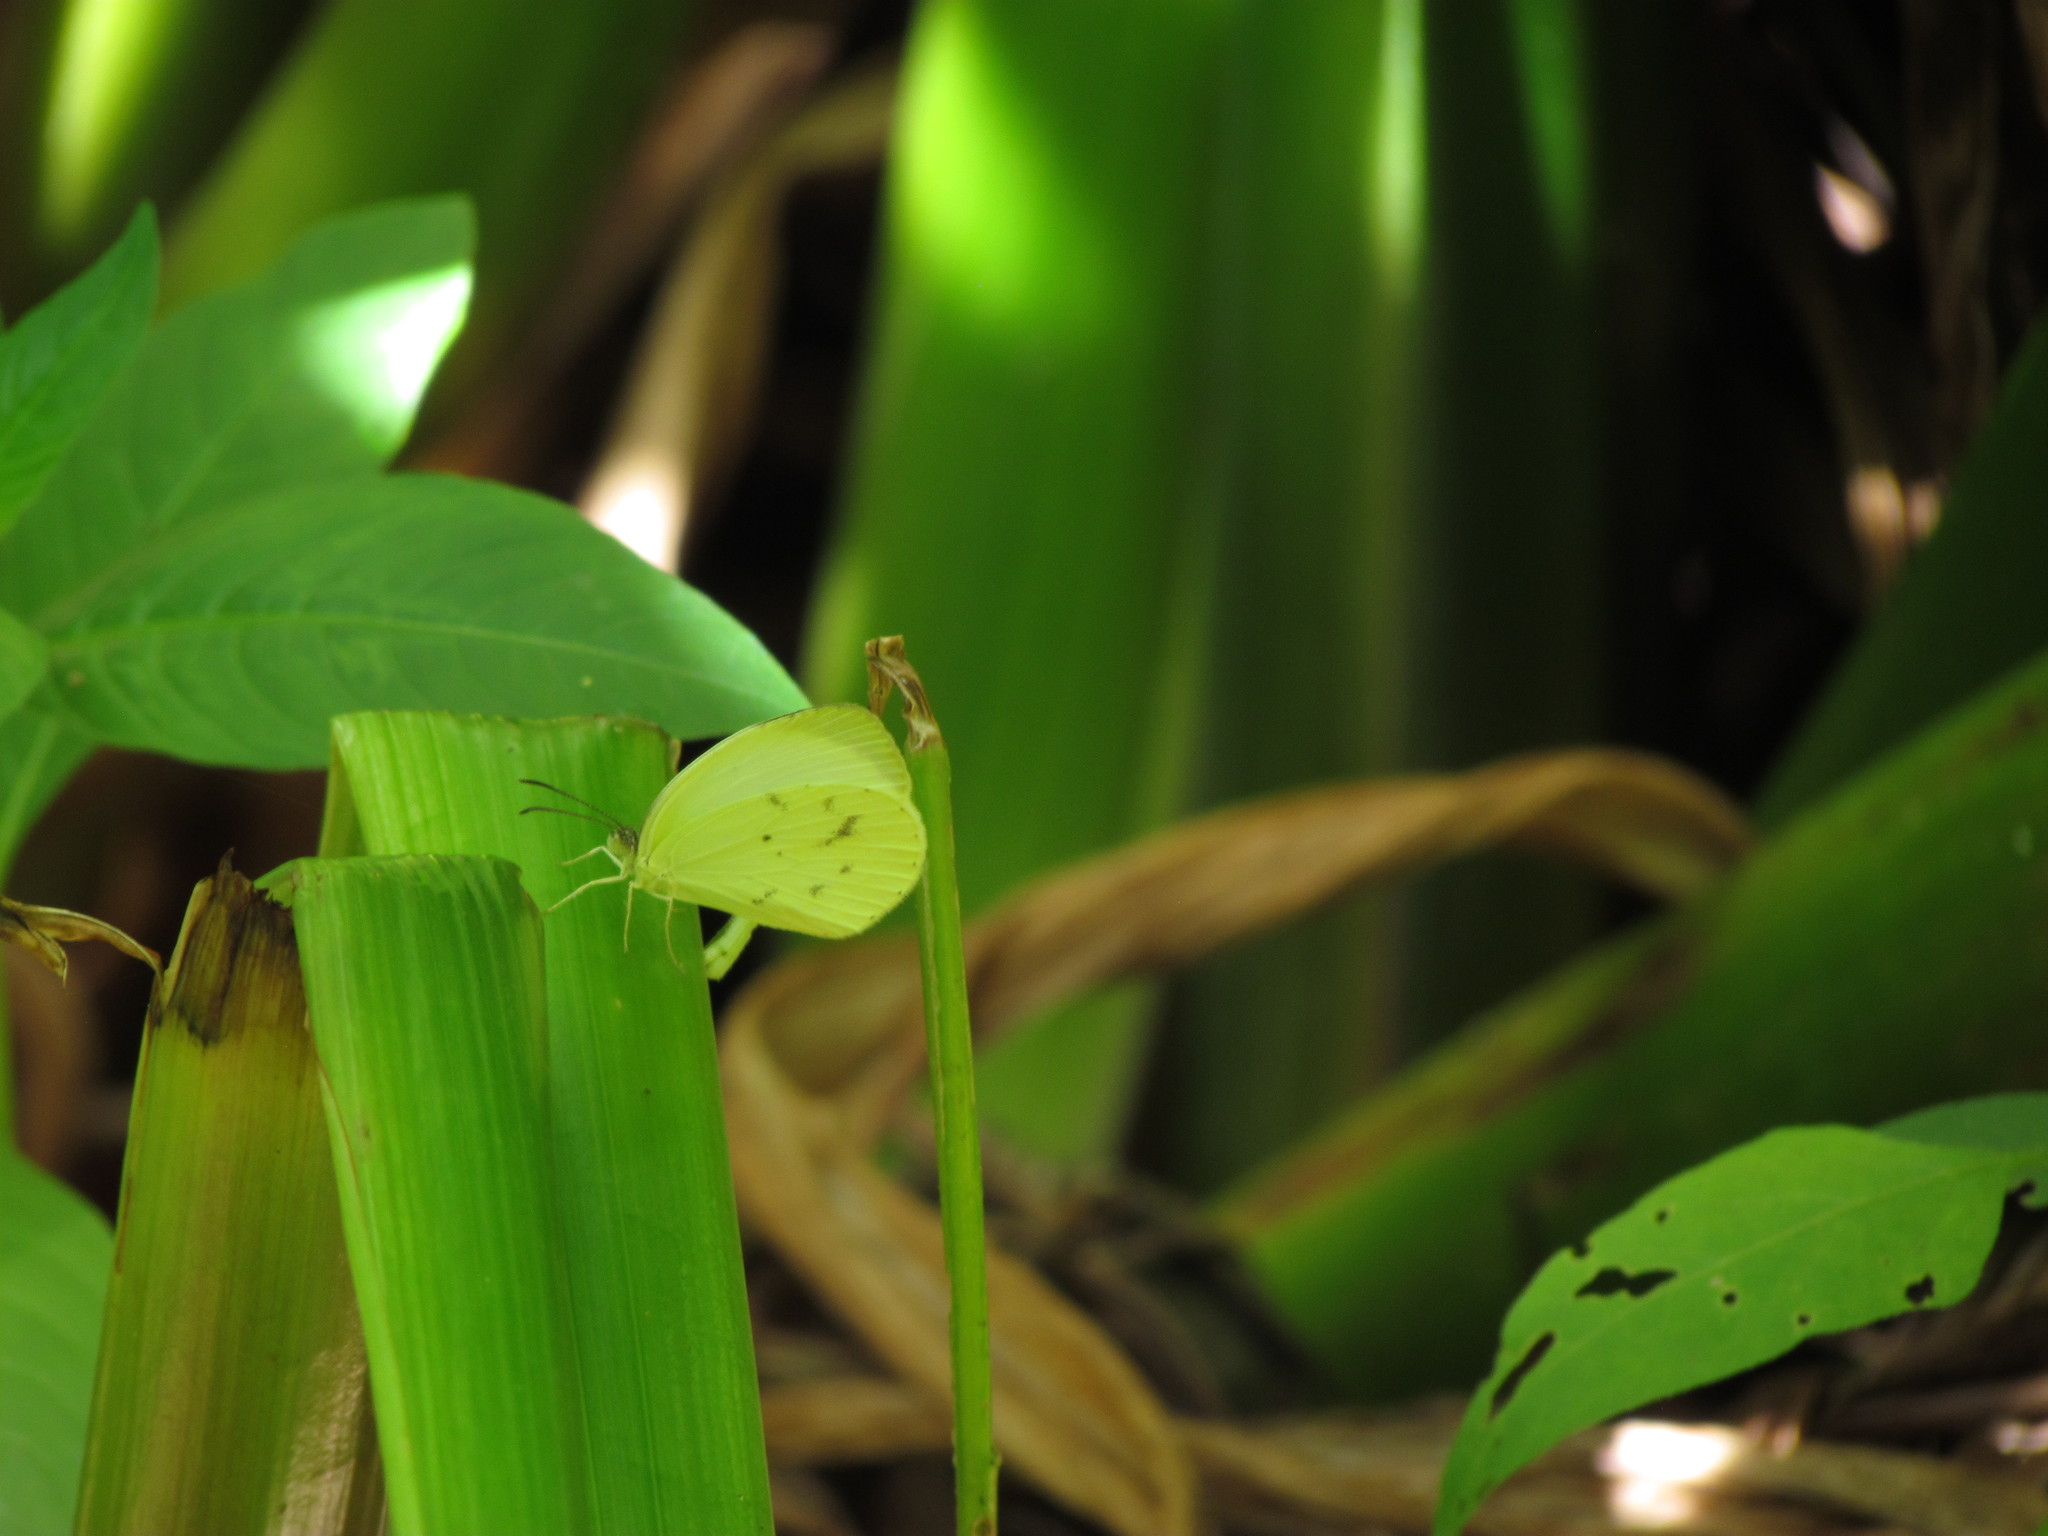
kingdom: Animalia
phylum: Arthropoda
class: Insecta
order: Lepidoptera
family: Pieridae
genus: Abaeis
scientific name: Abaeis albula
